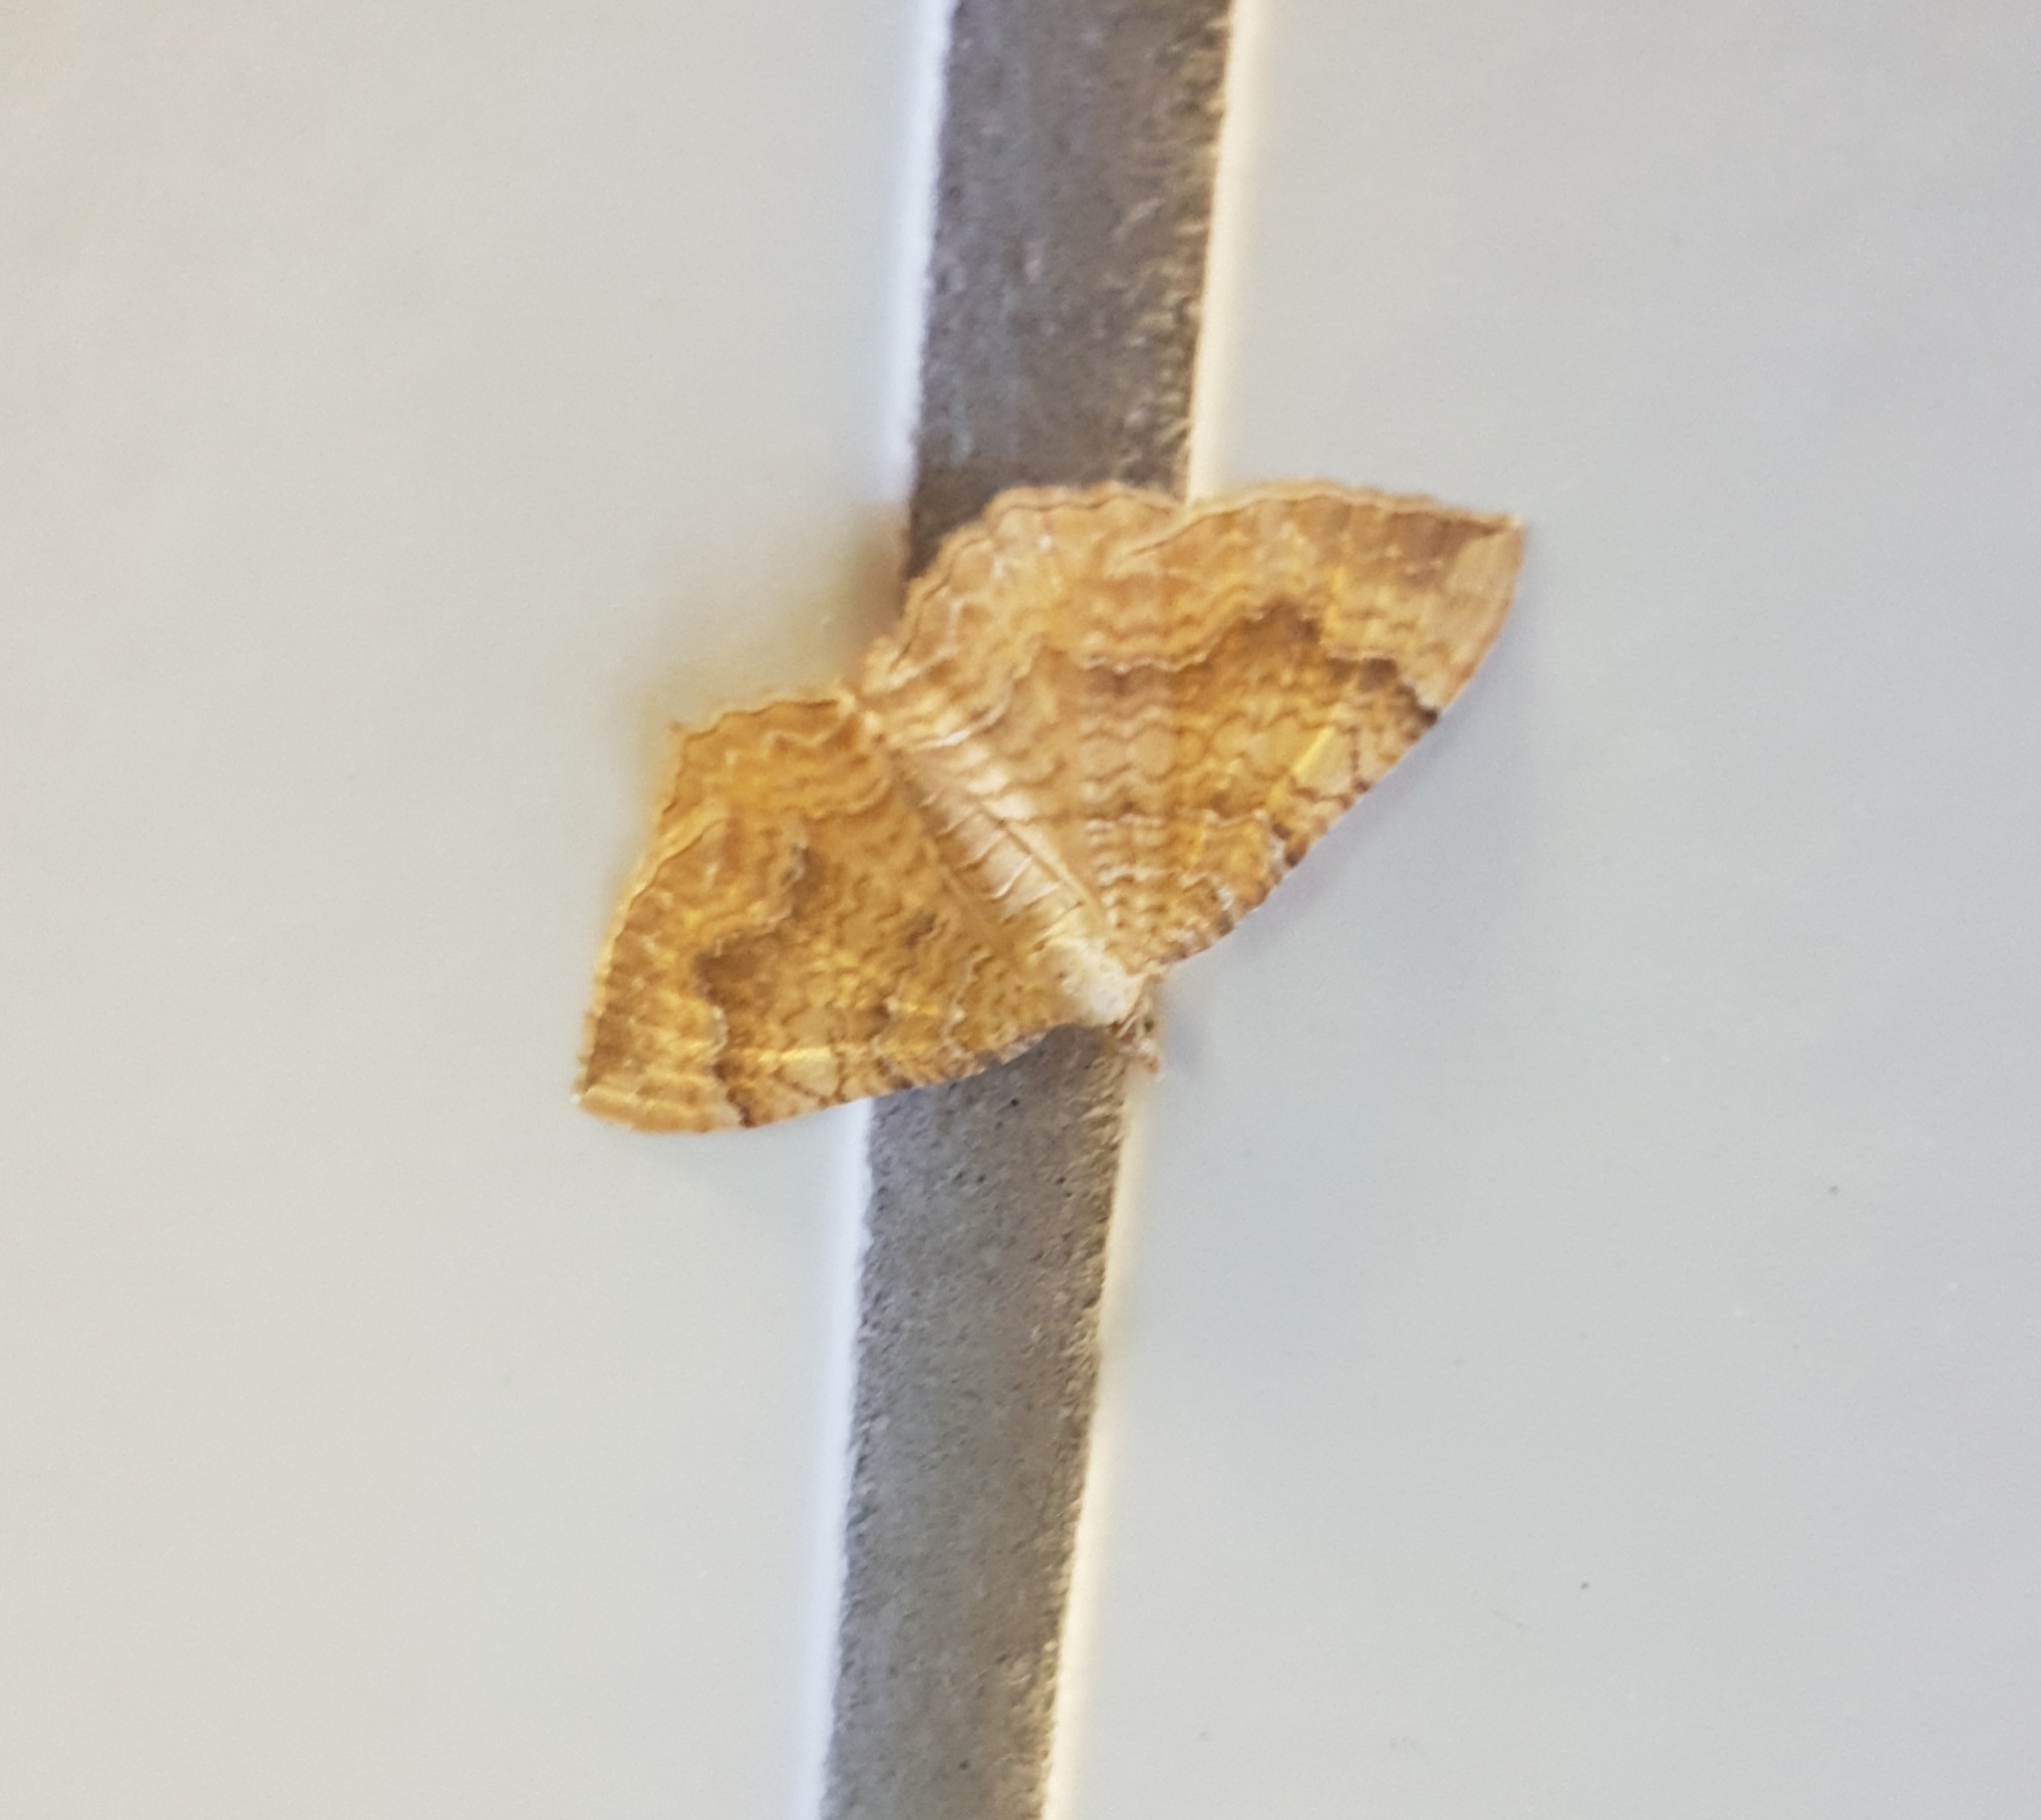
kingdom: Animalia
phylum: Arthropoda
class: Insecta
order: Lepidoptera
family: Geometridae
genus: Camptogramma
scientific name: Camptogramma bilineata
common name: Yellow shell
